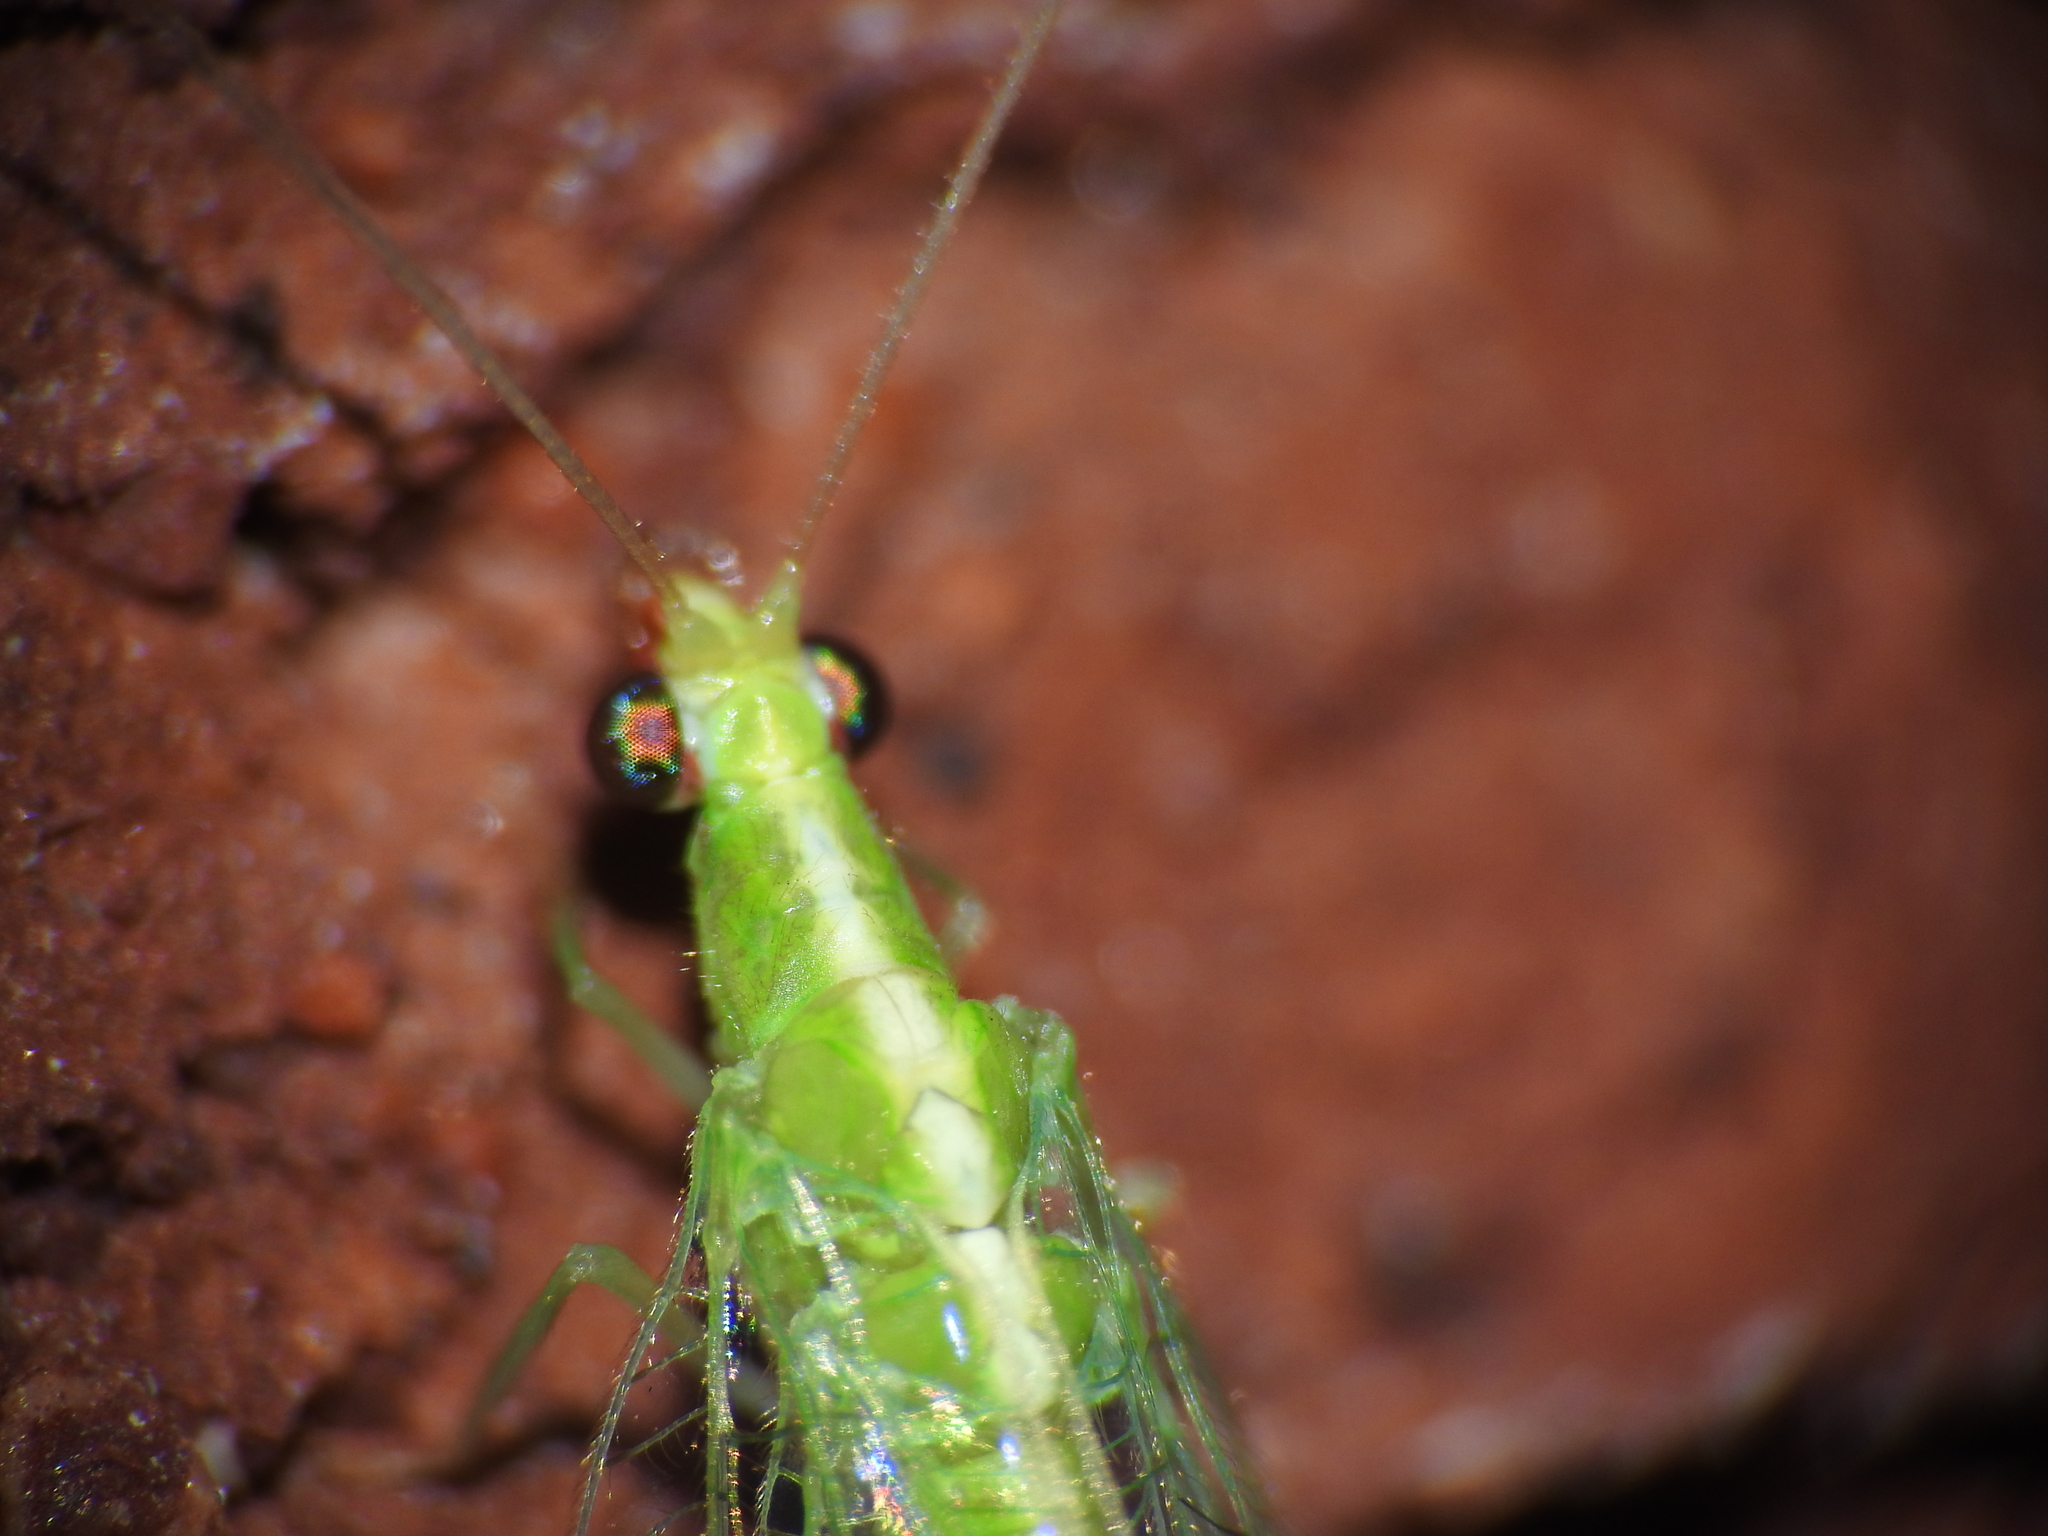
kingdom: Animalia
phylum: Arthropoda
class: Insecta
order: Neuroptera
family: Chrysopidae
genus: Chrysoperla
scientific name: Chrysoperla
